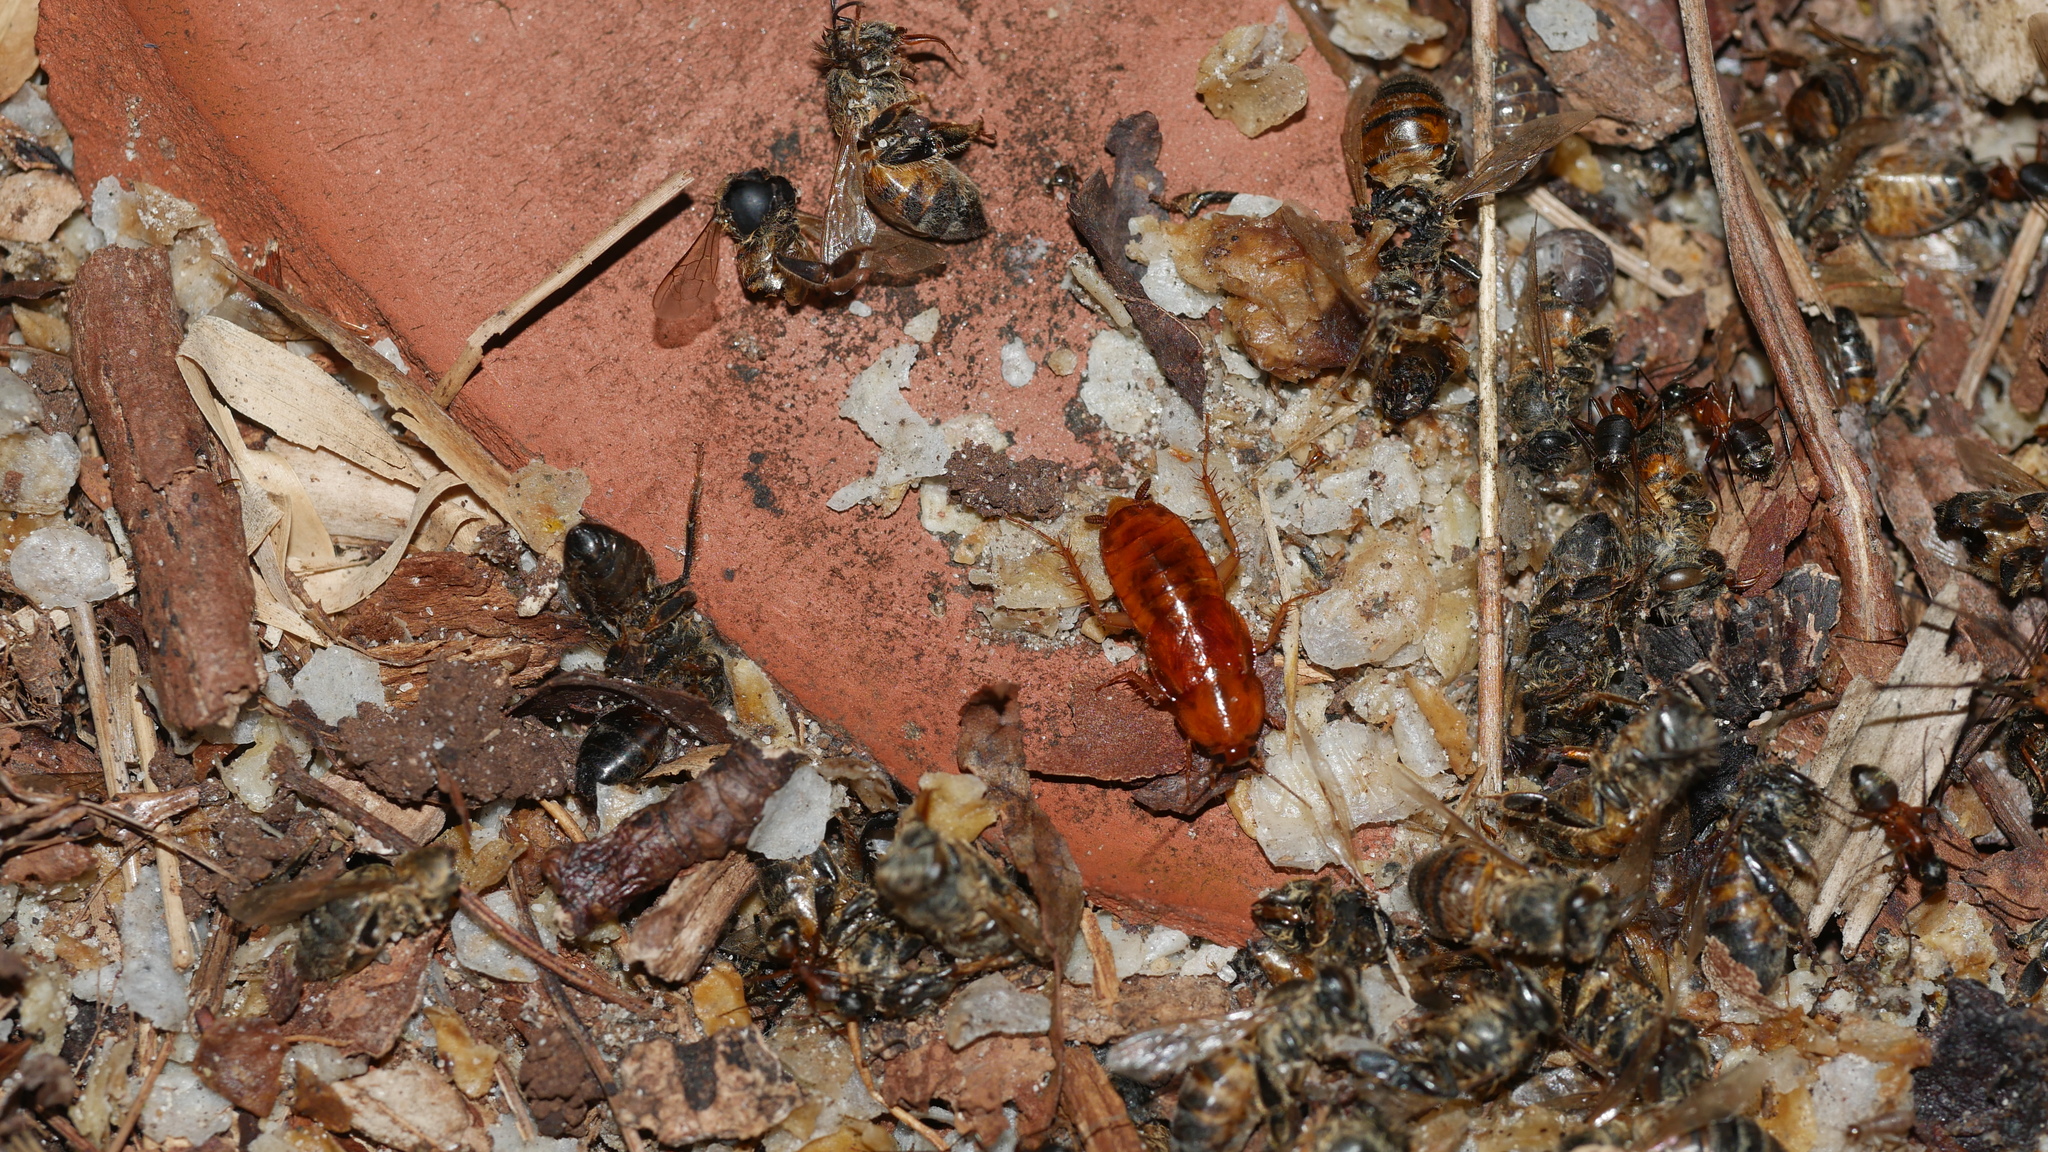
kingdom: Animalia
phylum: Arthropoda
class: Insecta
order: Blattodea
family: Ectobiidae
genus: Parcoblatta
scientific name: Parcoblatta
